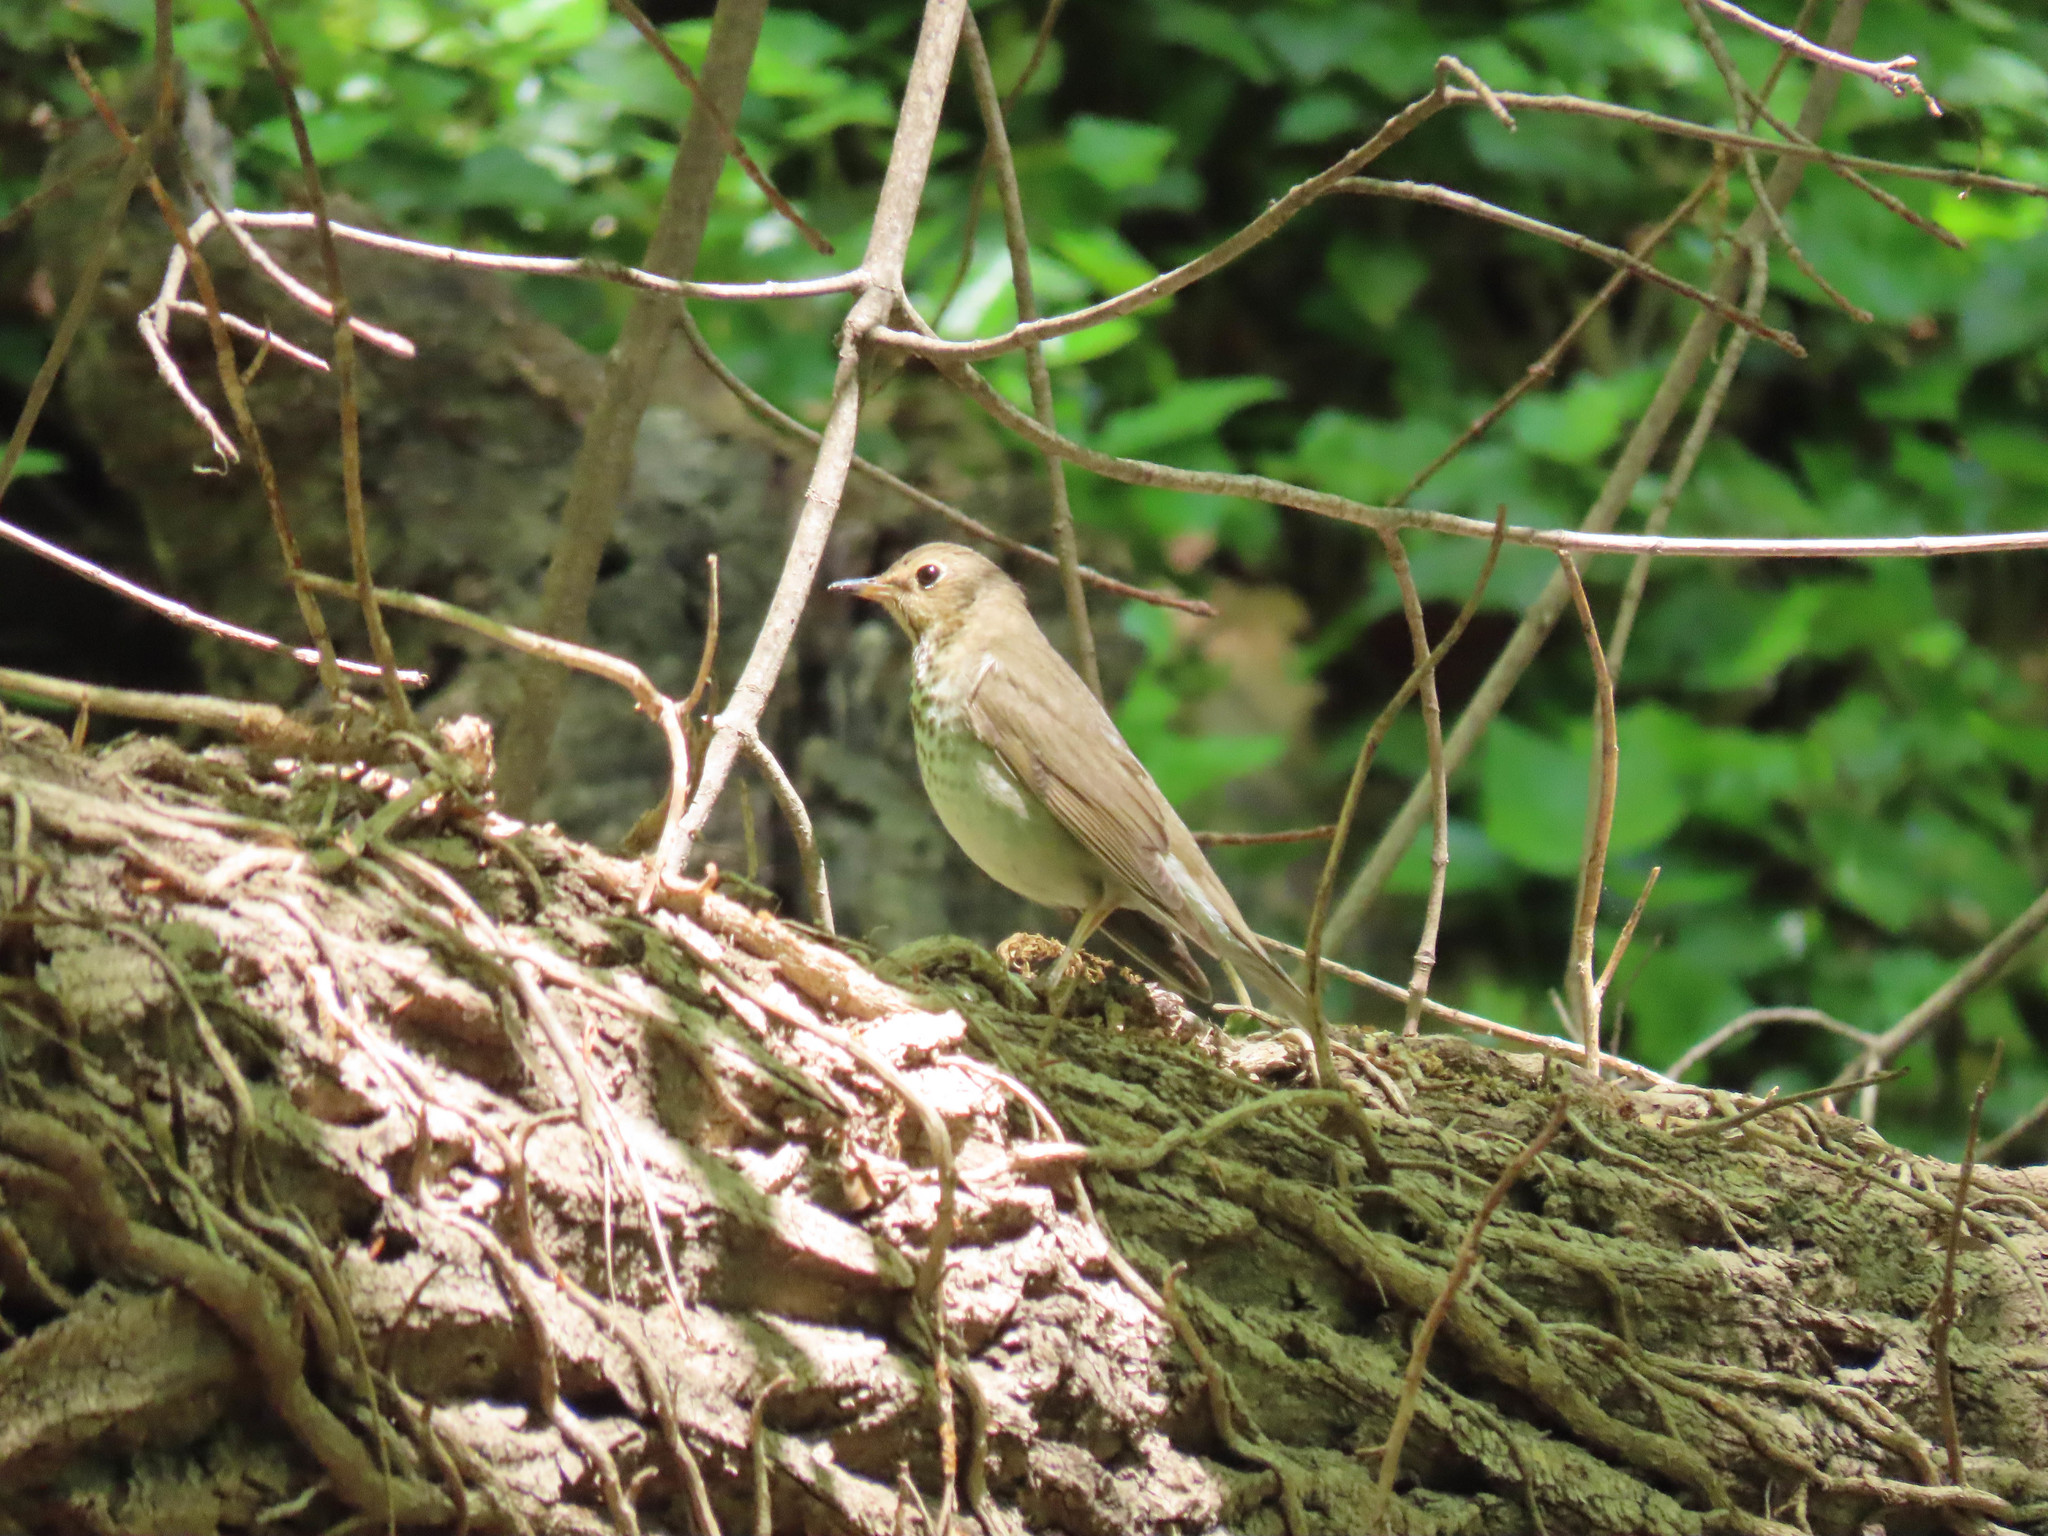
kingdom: Animalia
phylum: Chordata
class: Aves
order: Passeriformes
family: Turdidae
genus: Catharus
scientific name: Catharus ustulatus
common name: Swainson's thrush
